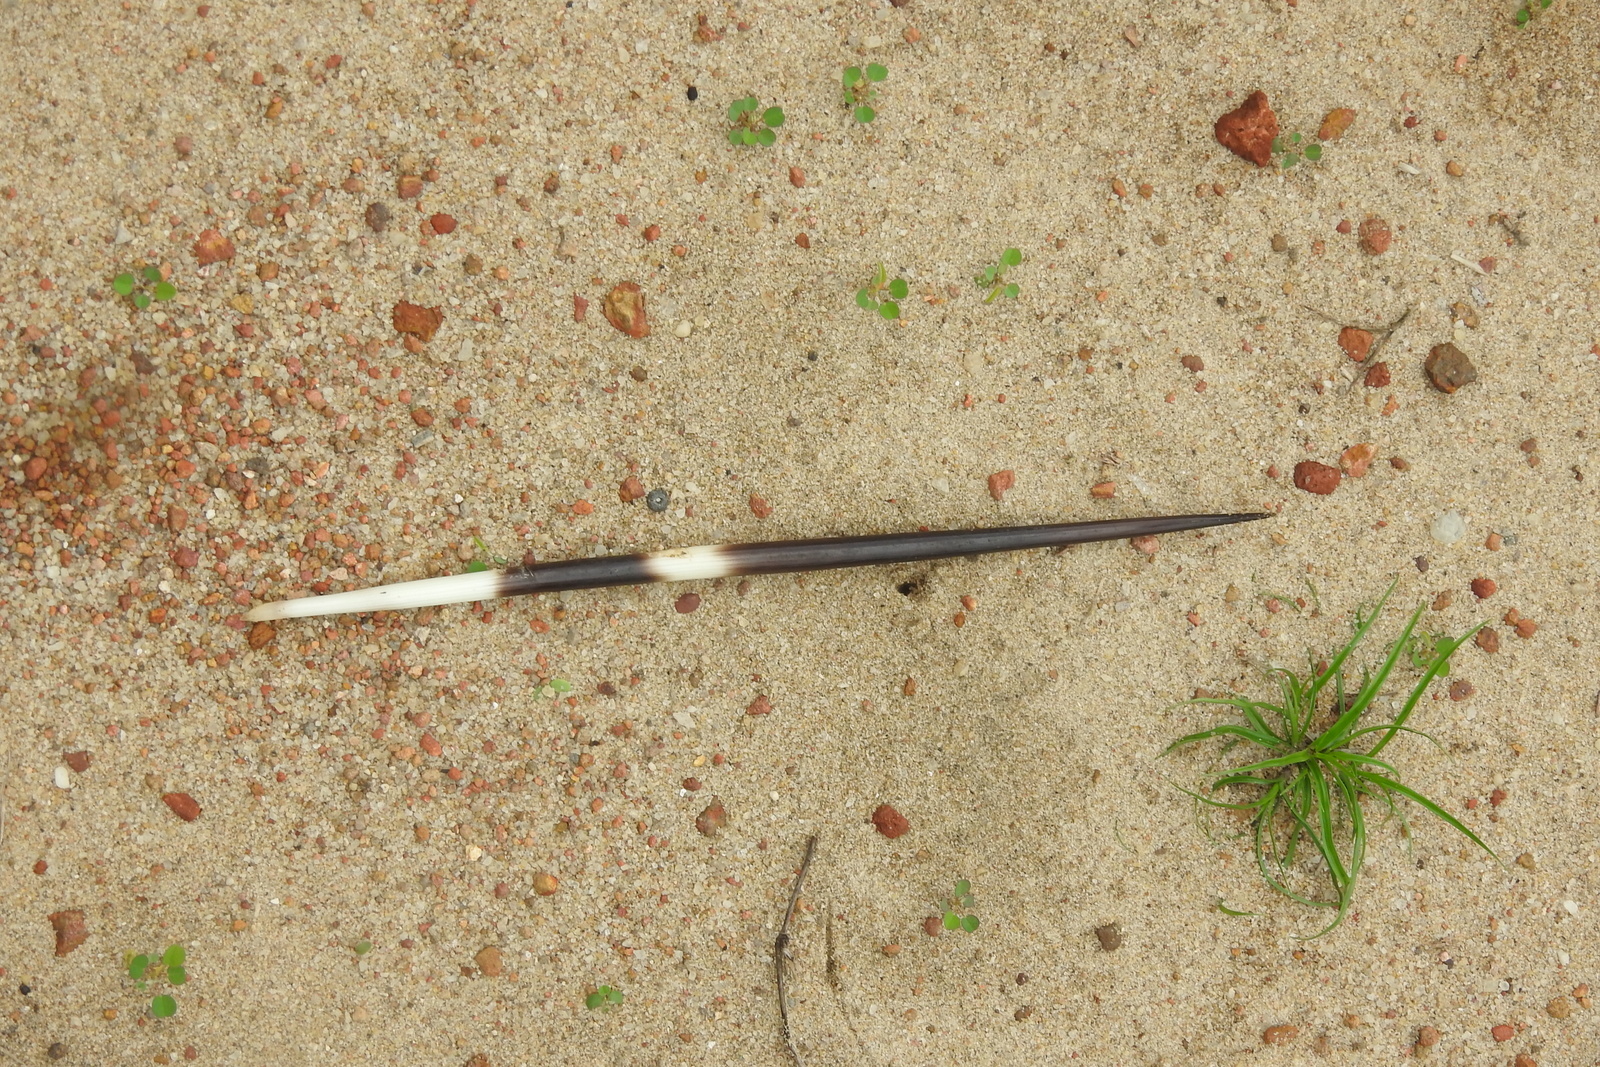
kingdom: Animalia
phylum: Chordata
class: Mammalia
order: Rodentia
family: Hystricidae
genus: Hystrix
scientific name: Hystrix indica
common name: Indian crested porcupine
